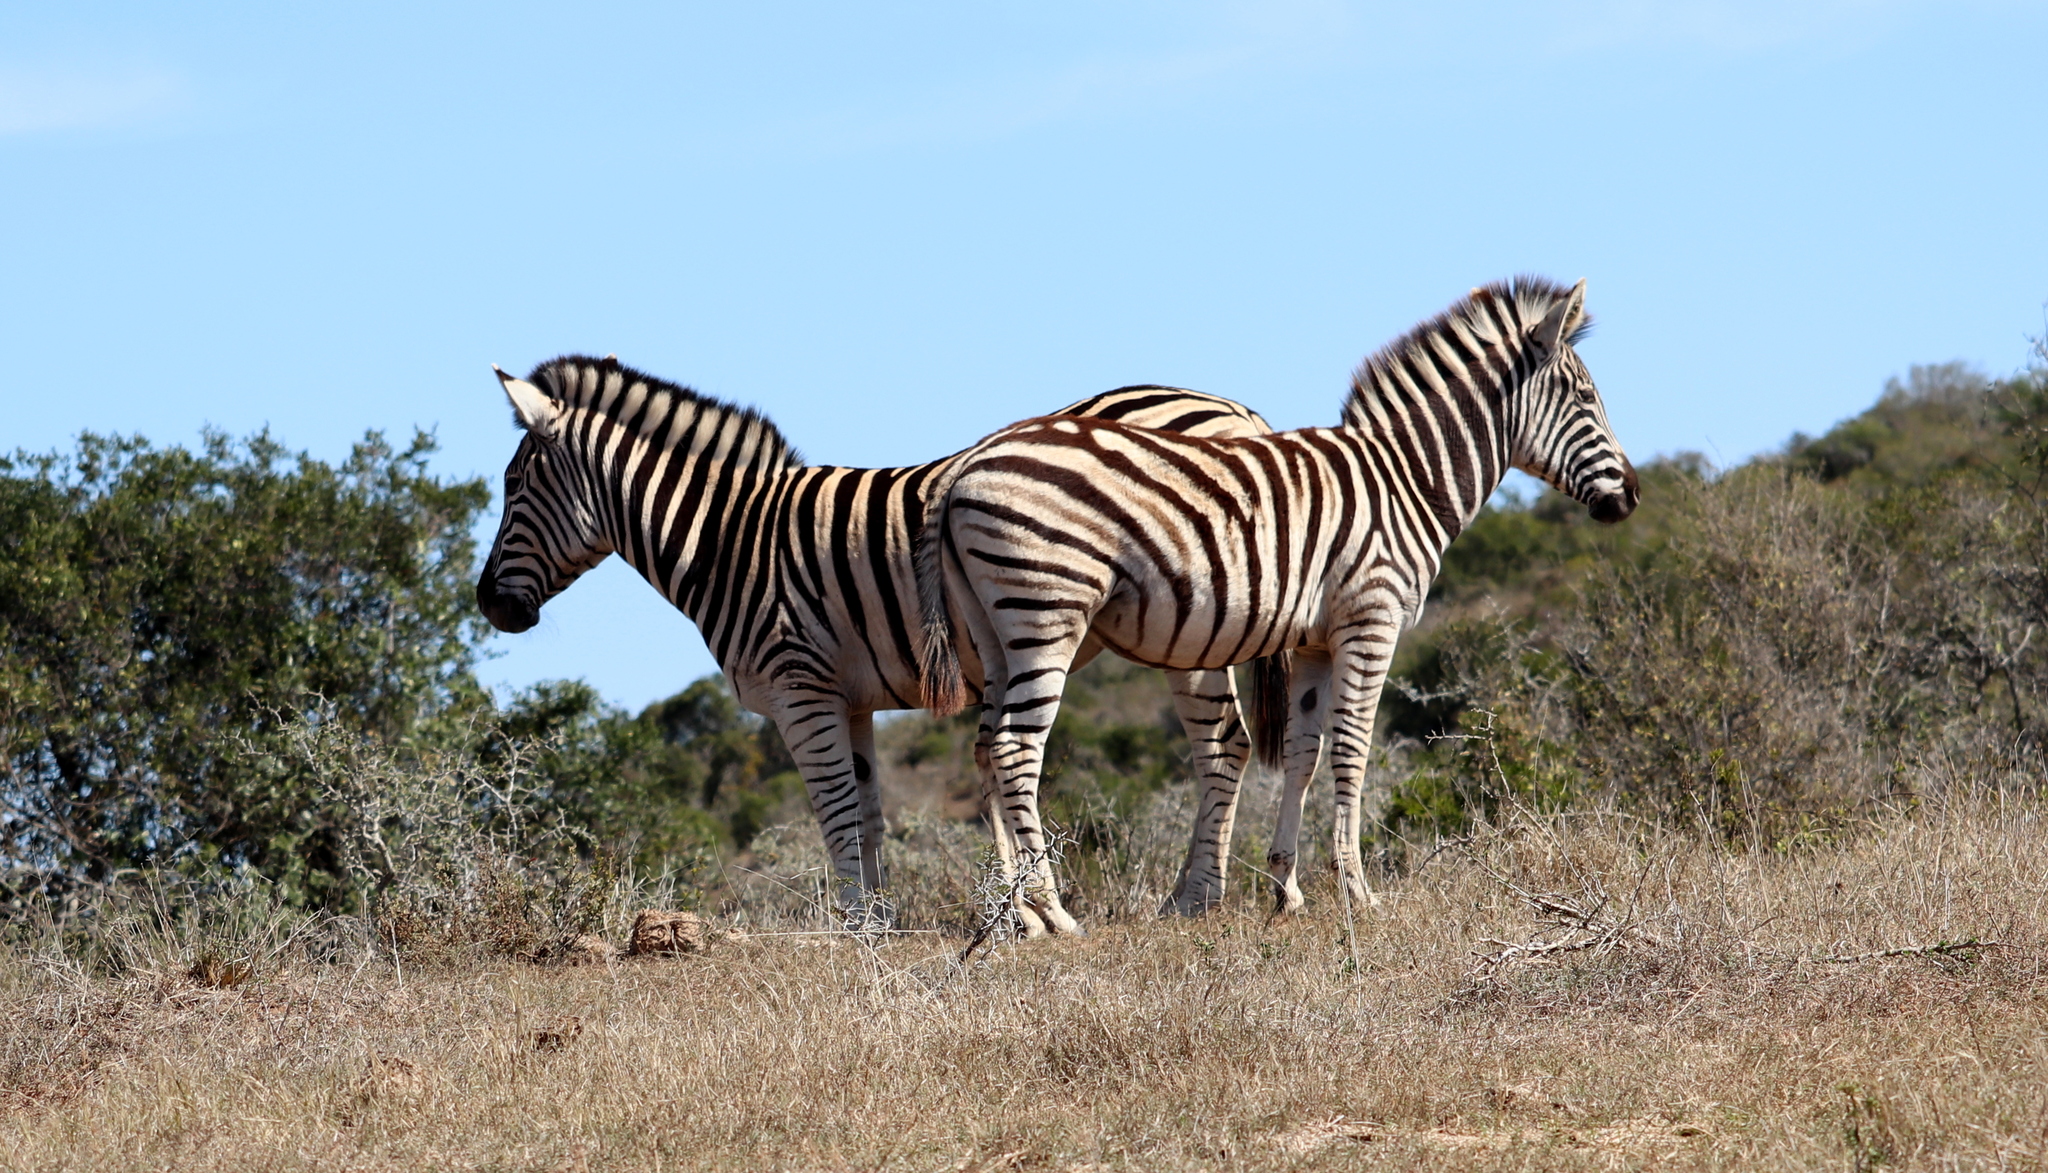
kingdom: Animalia
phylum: Chordata
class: Mammalia
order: Perissodactyla
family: Equidae
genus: Equus
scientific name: Equus quagga
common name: Plains zebra
